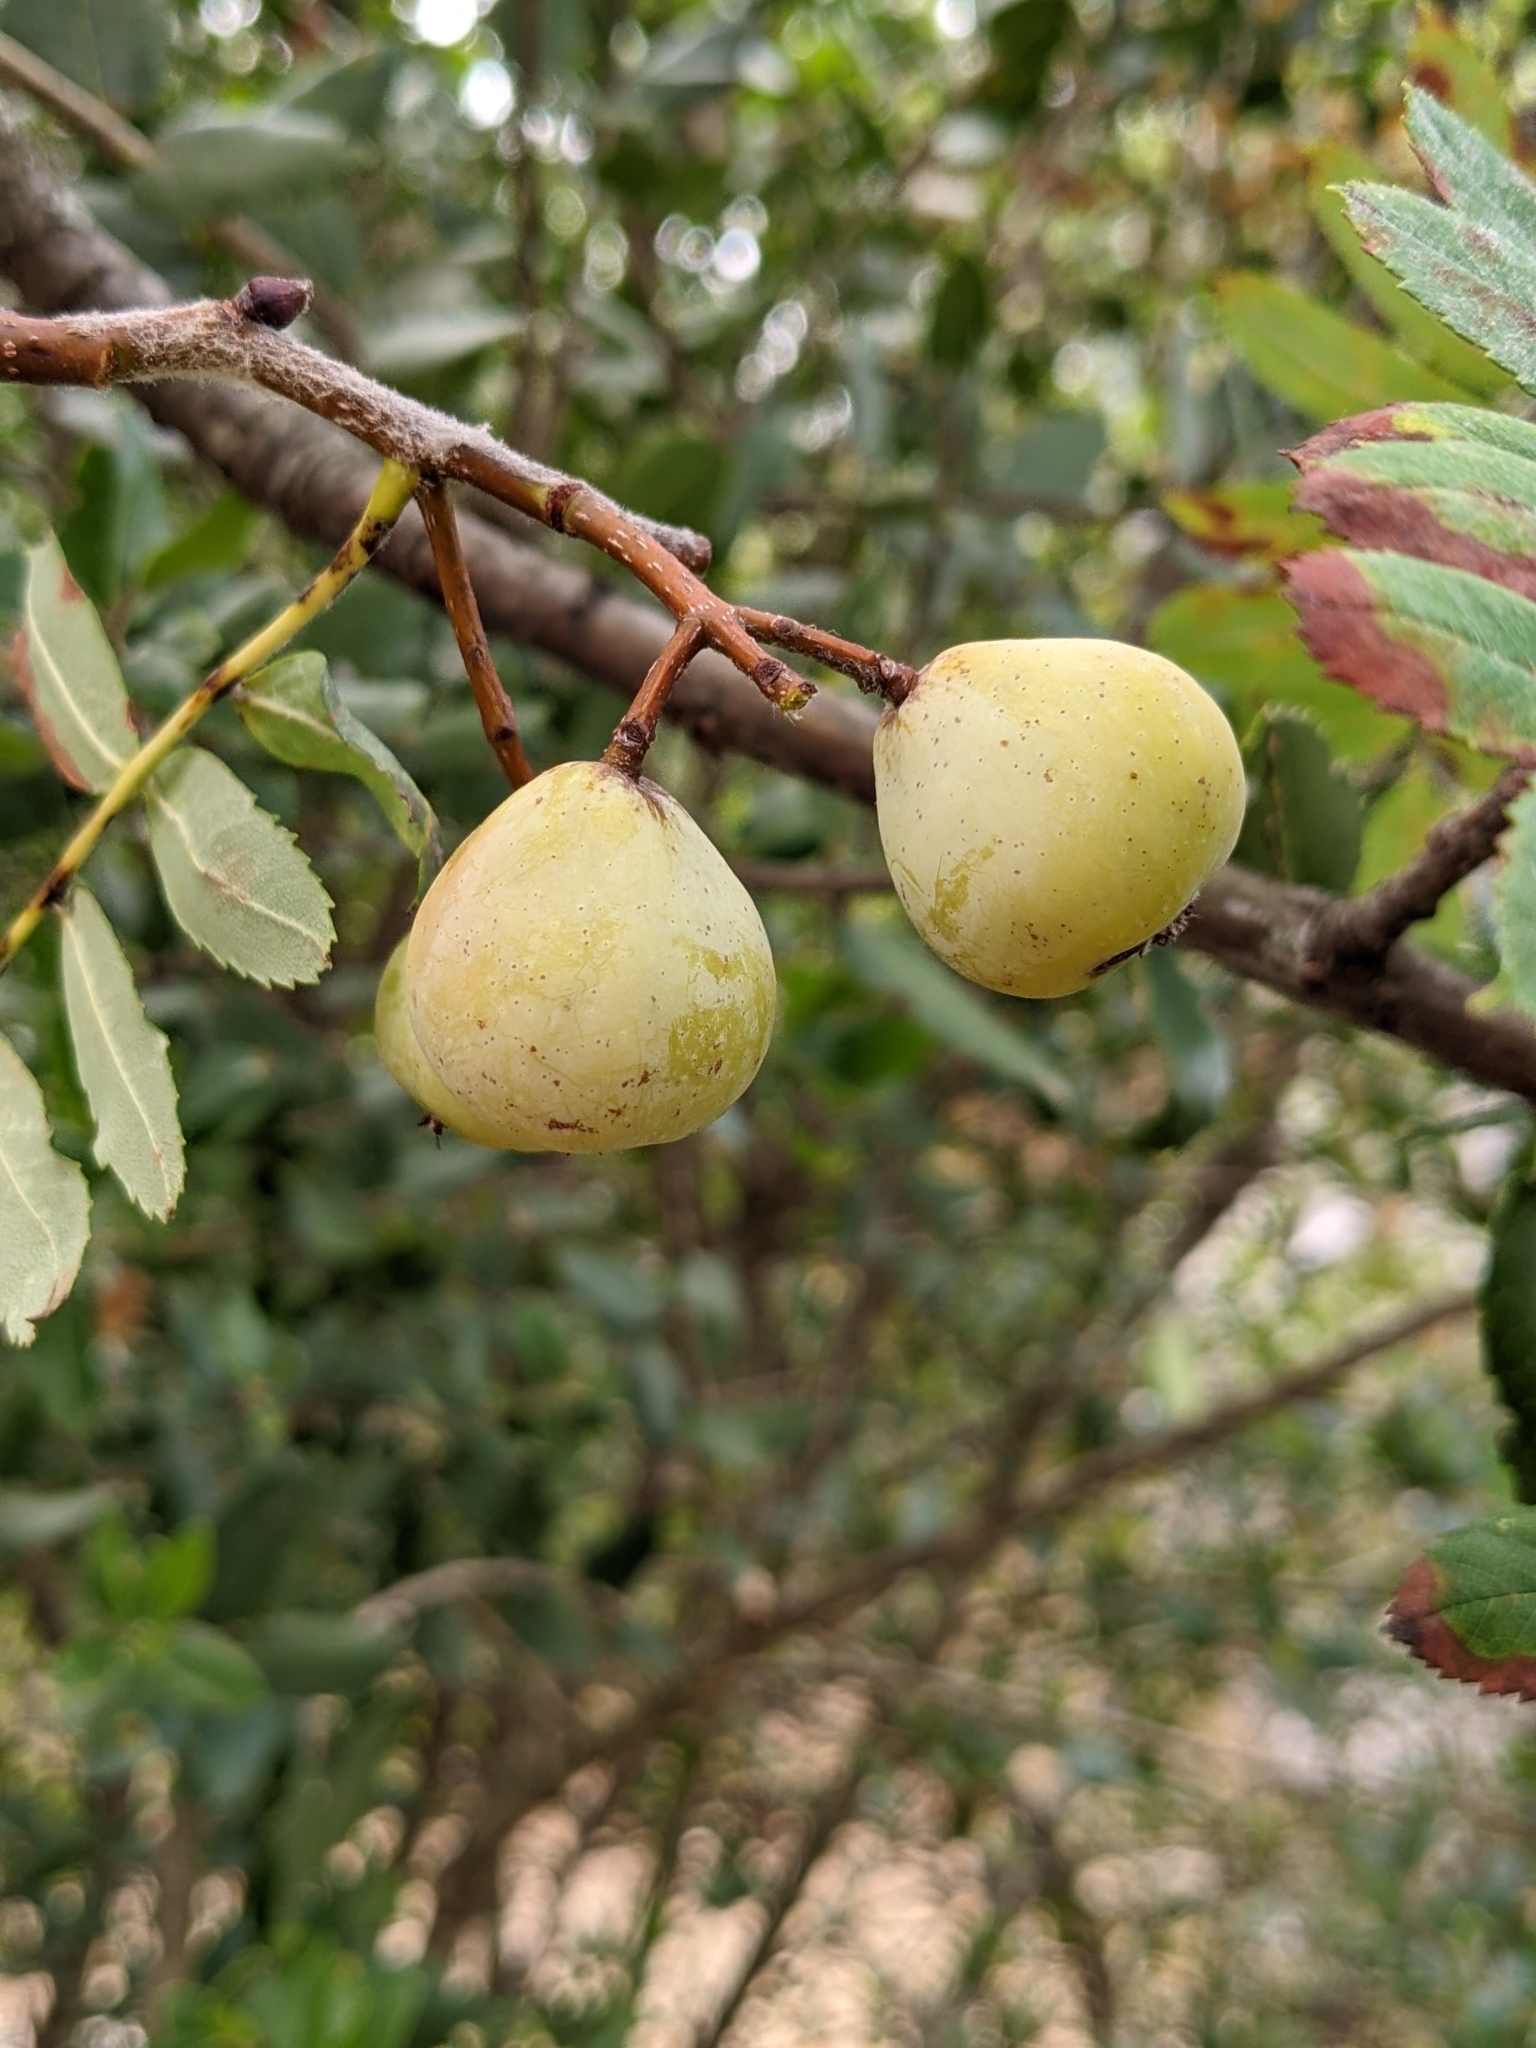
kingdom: Plantae
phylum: Tracheophyta
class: Magnoliopsida
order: Rosales
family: Rosaceae
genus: Cormus
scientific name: Cormus domestica
